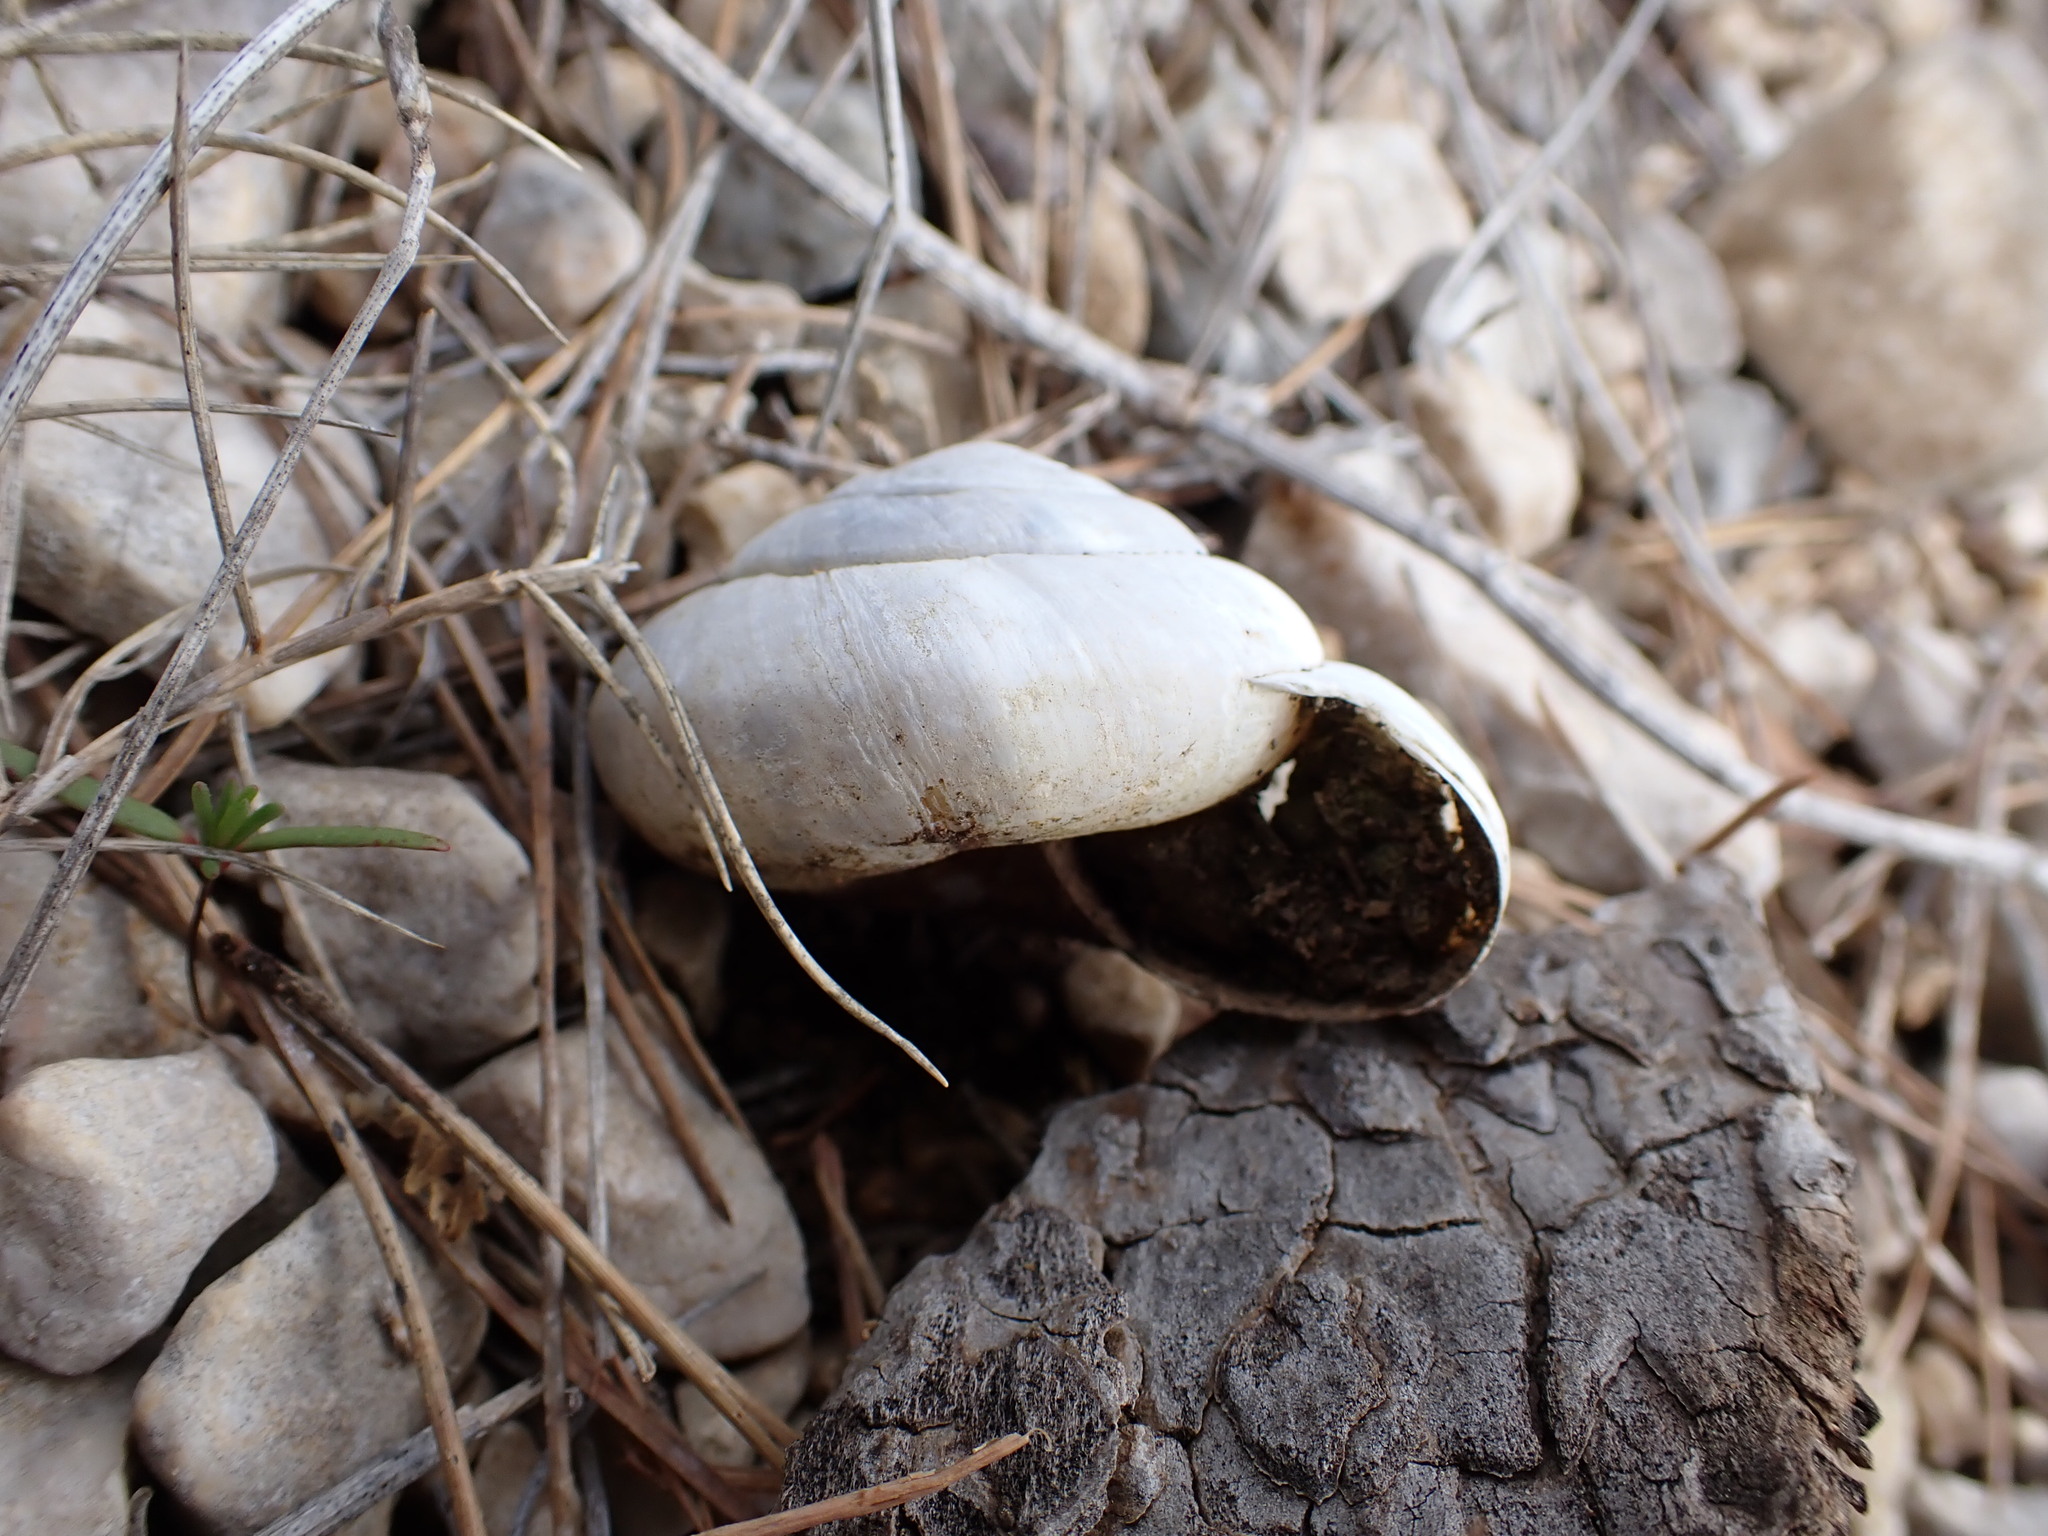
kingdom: Animalia
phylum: Mollusca
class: Gastropoda
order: Stylommatophora
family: Zonitidae
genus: Zonites
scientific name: Zonites algirus
